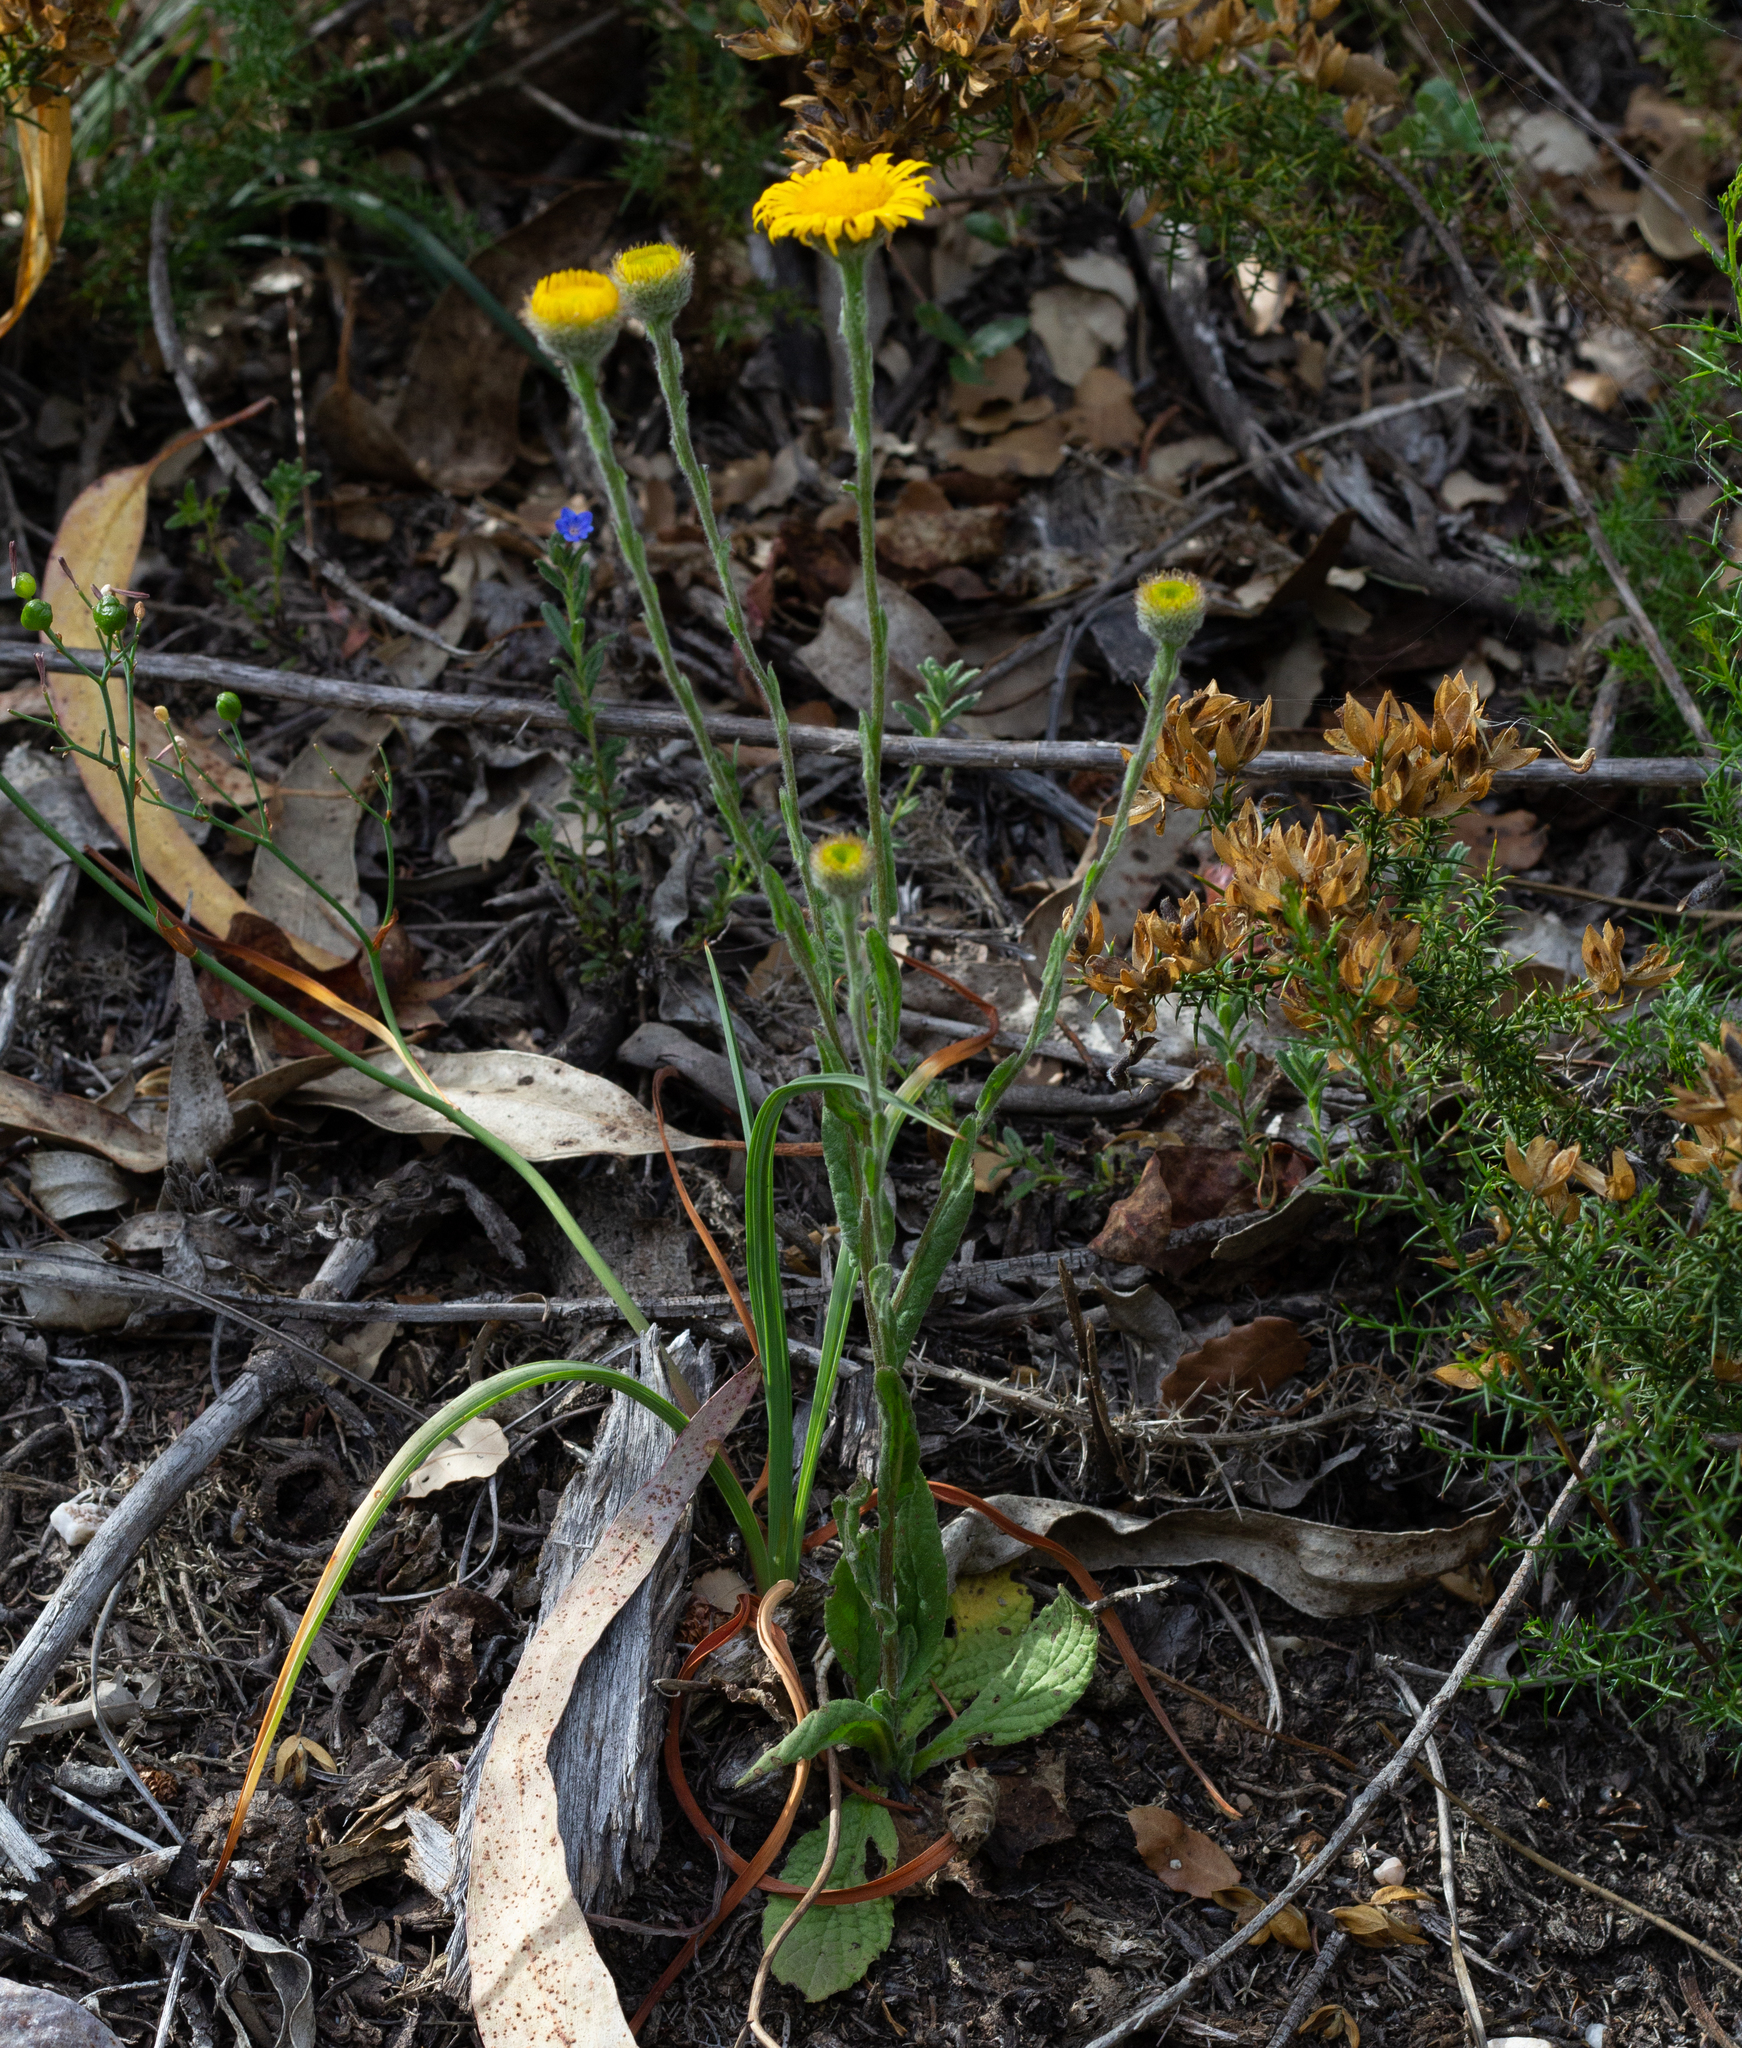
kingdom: Plantae
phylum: Tracheophyta
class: Magnoliopsida
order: Asterales
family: Asteraceae
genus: Pulicaria
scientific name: Pulicaria odora
